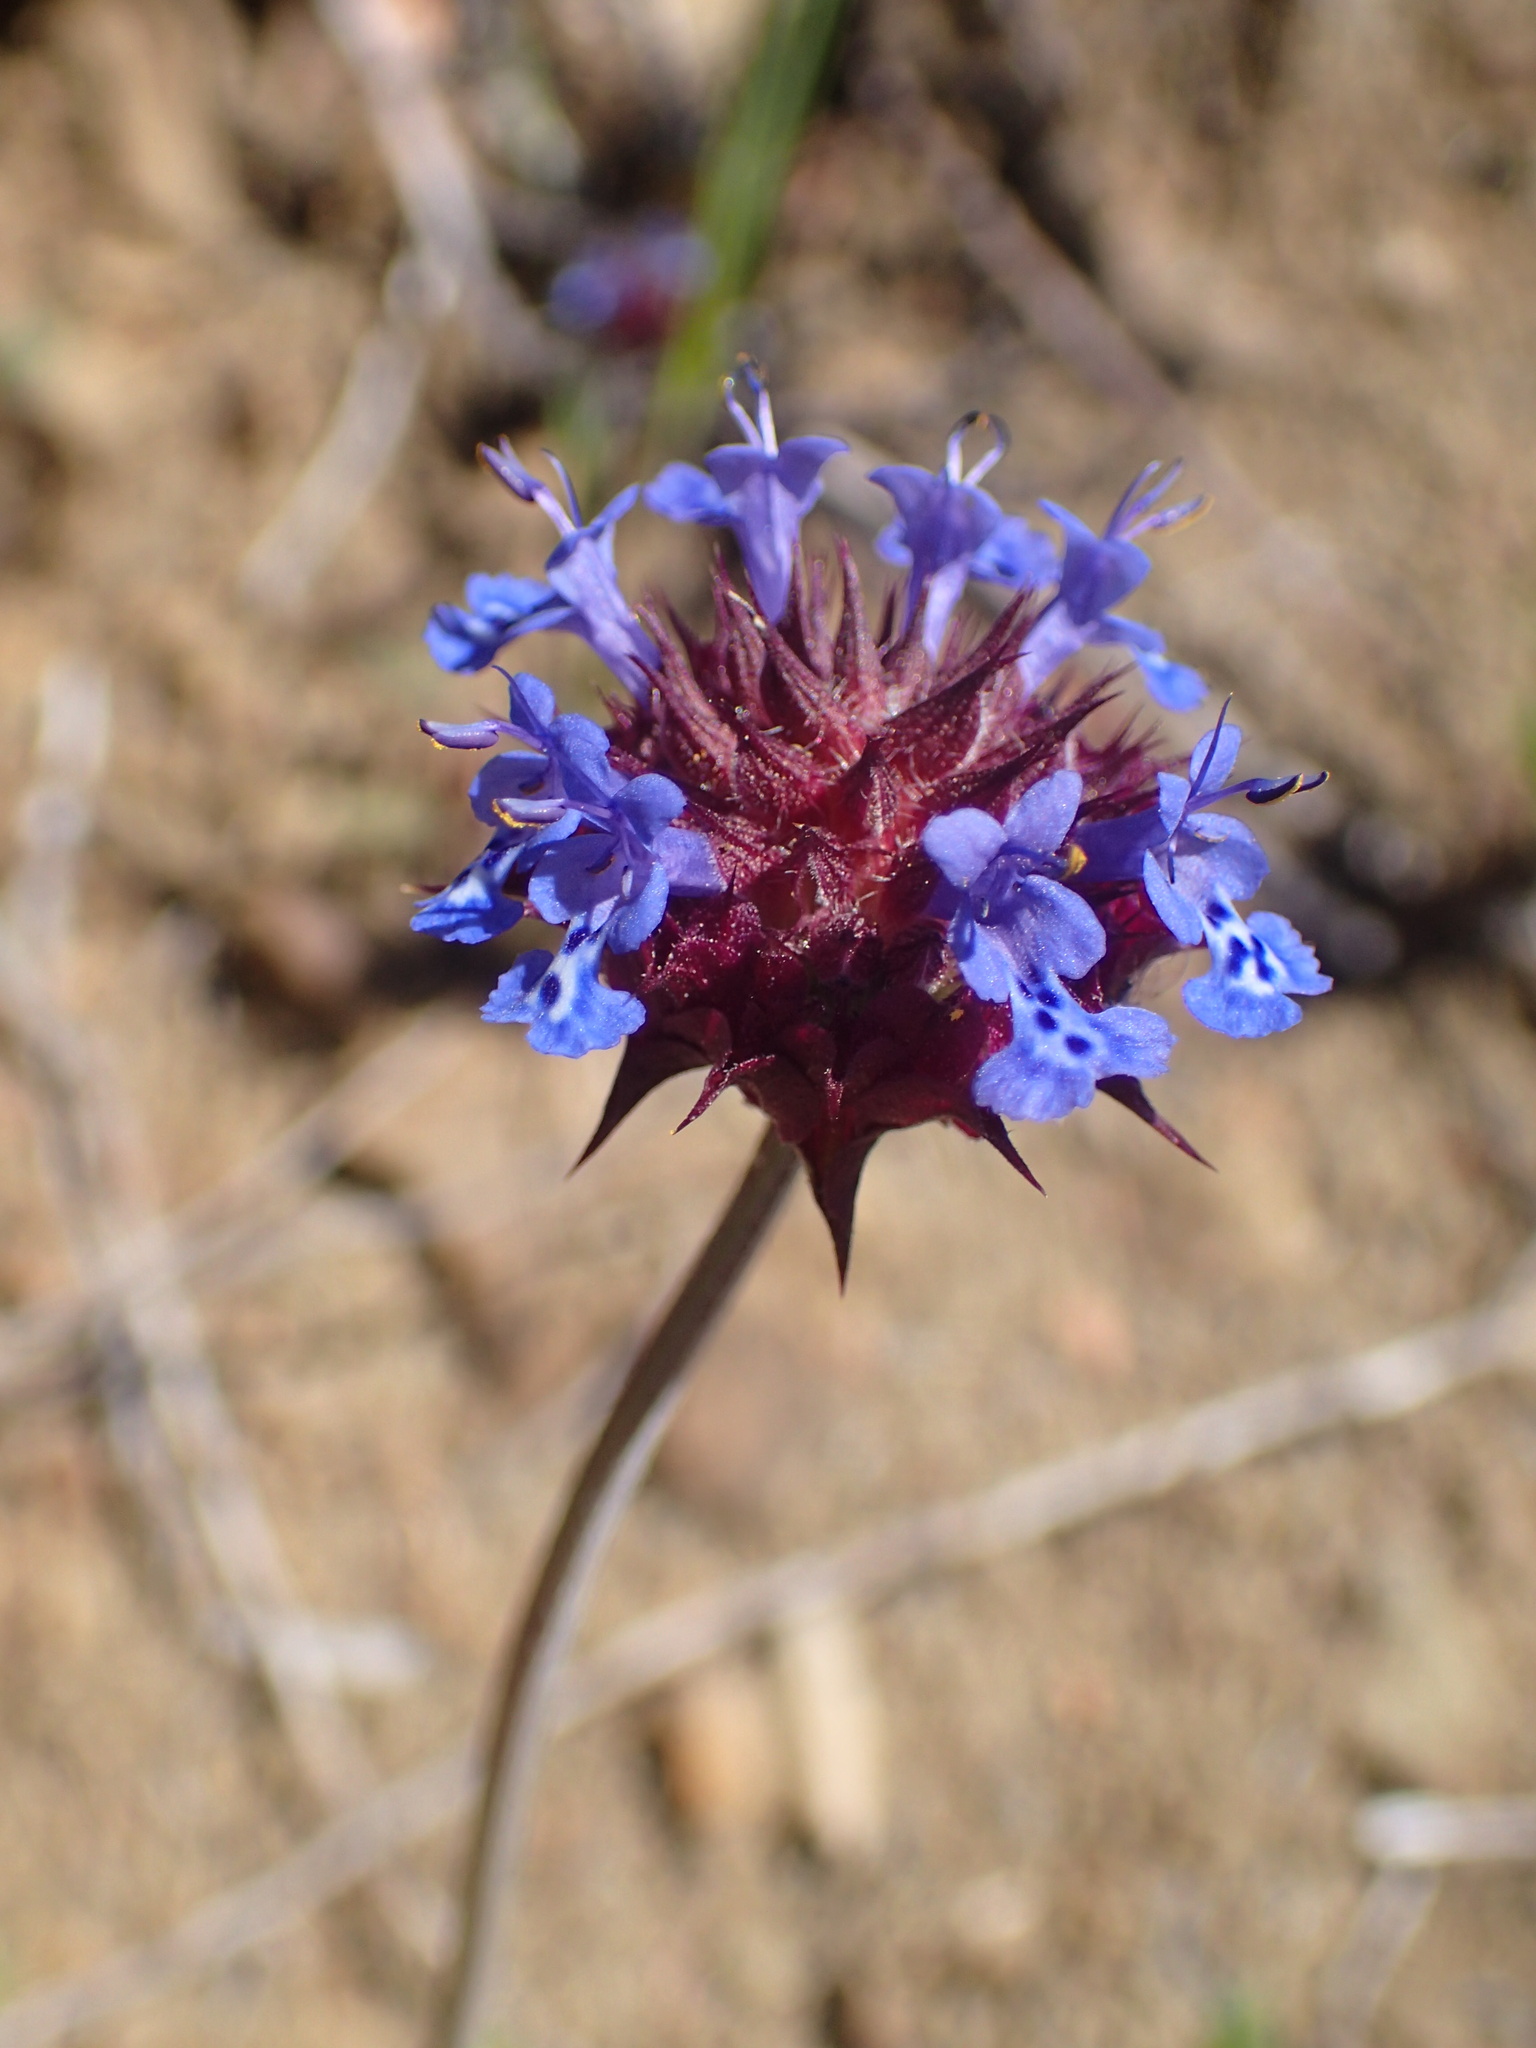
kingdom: Plantae
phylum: Tracheophyta
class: Magnoliopsida
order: Lamiales
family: Lamiaceae
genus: Salvia
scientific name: Salvia columbariae
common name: Chia
